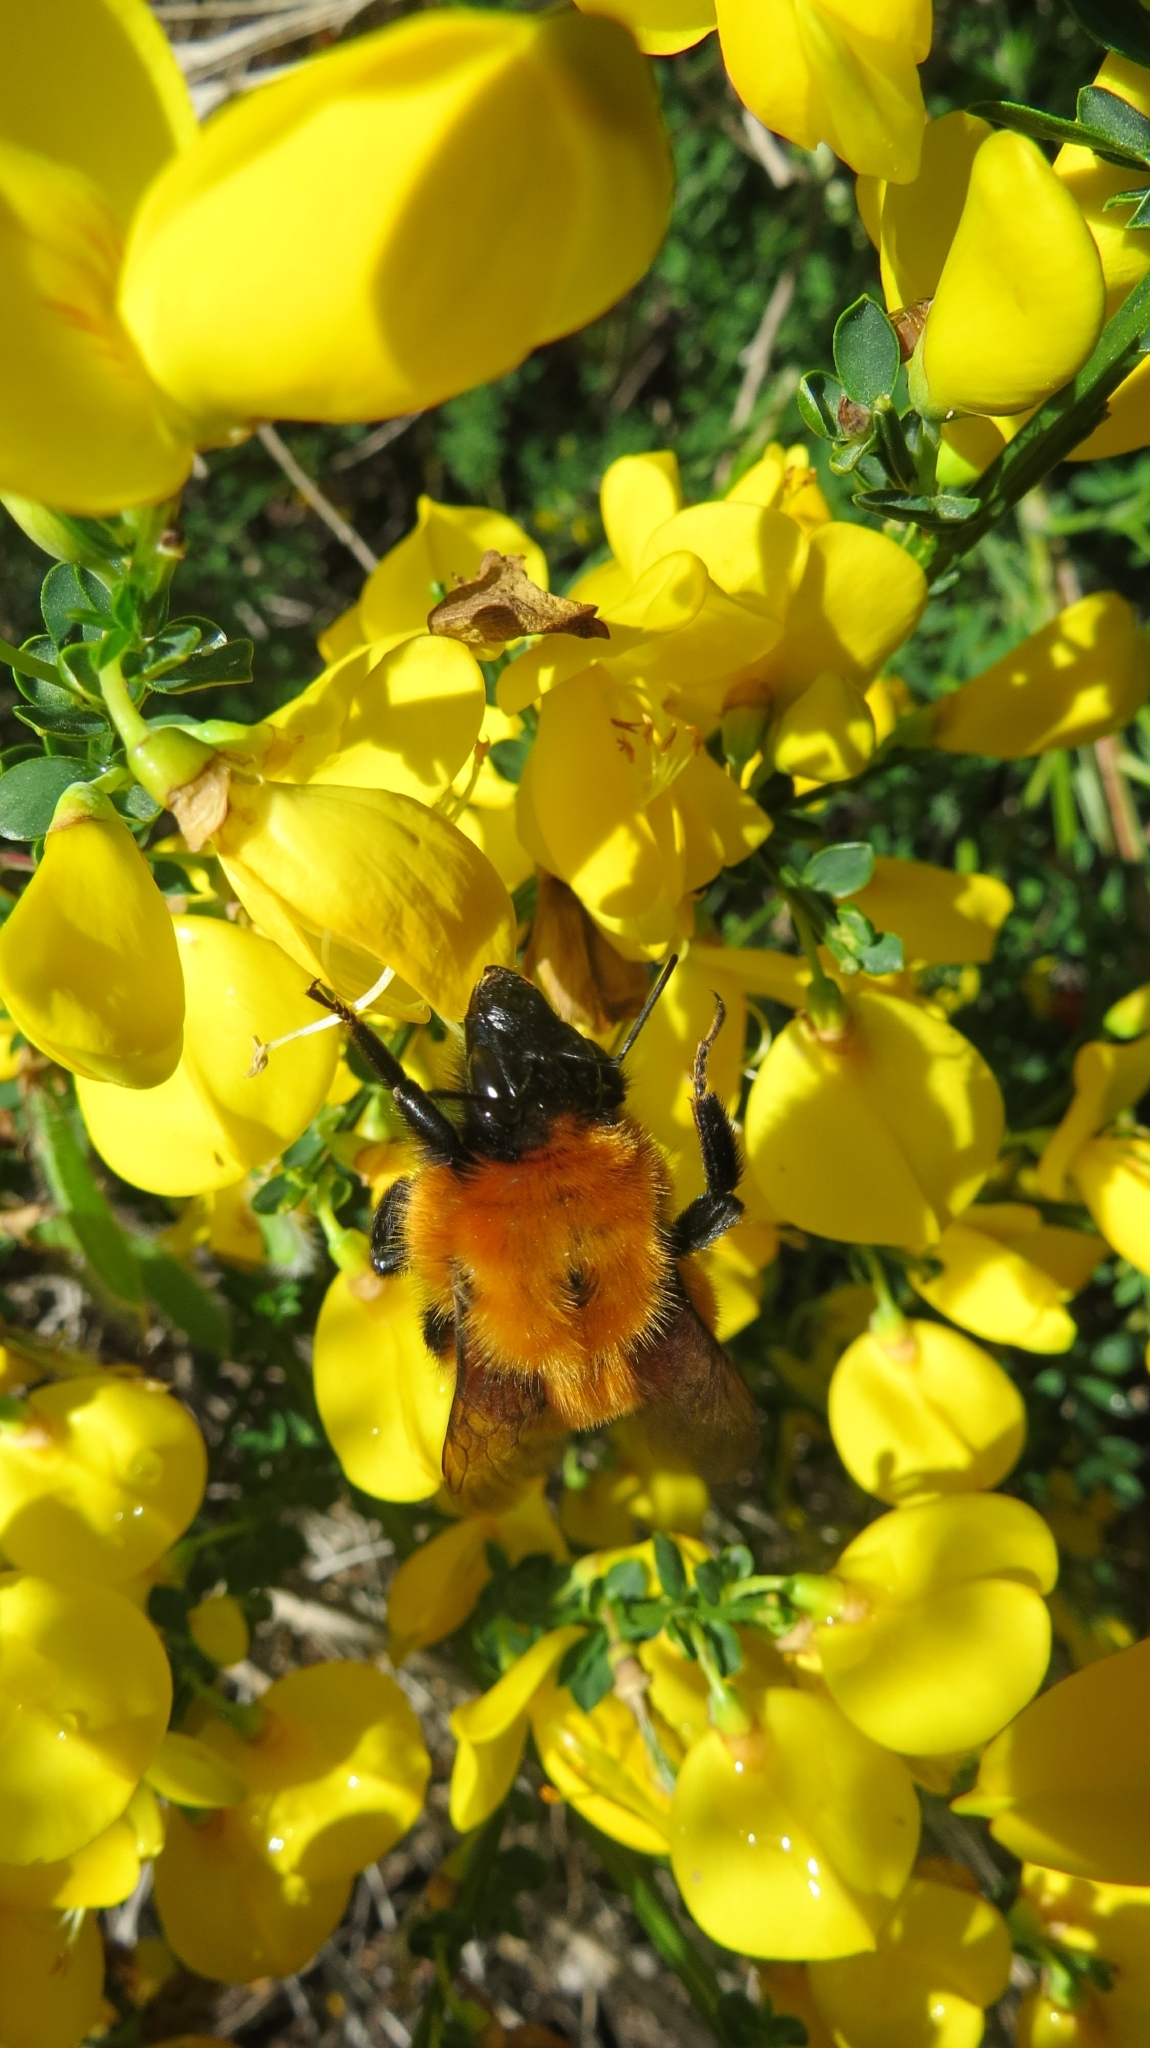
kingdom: Animalia
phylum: Arthropoda
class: Insecta
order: Hymenoptera
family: Apidae
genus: Bombus
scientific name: Bombus dahlbomii
